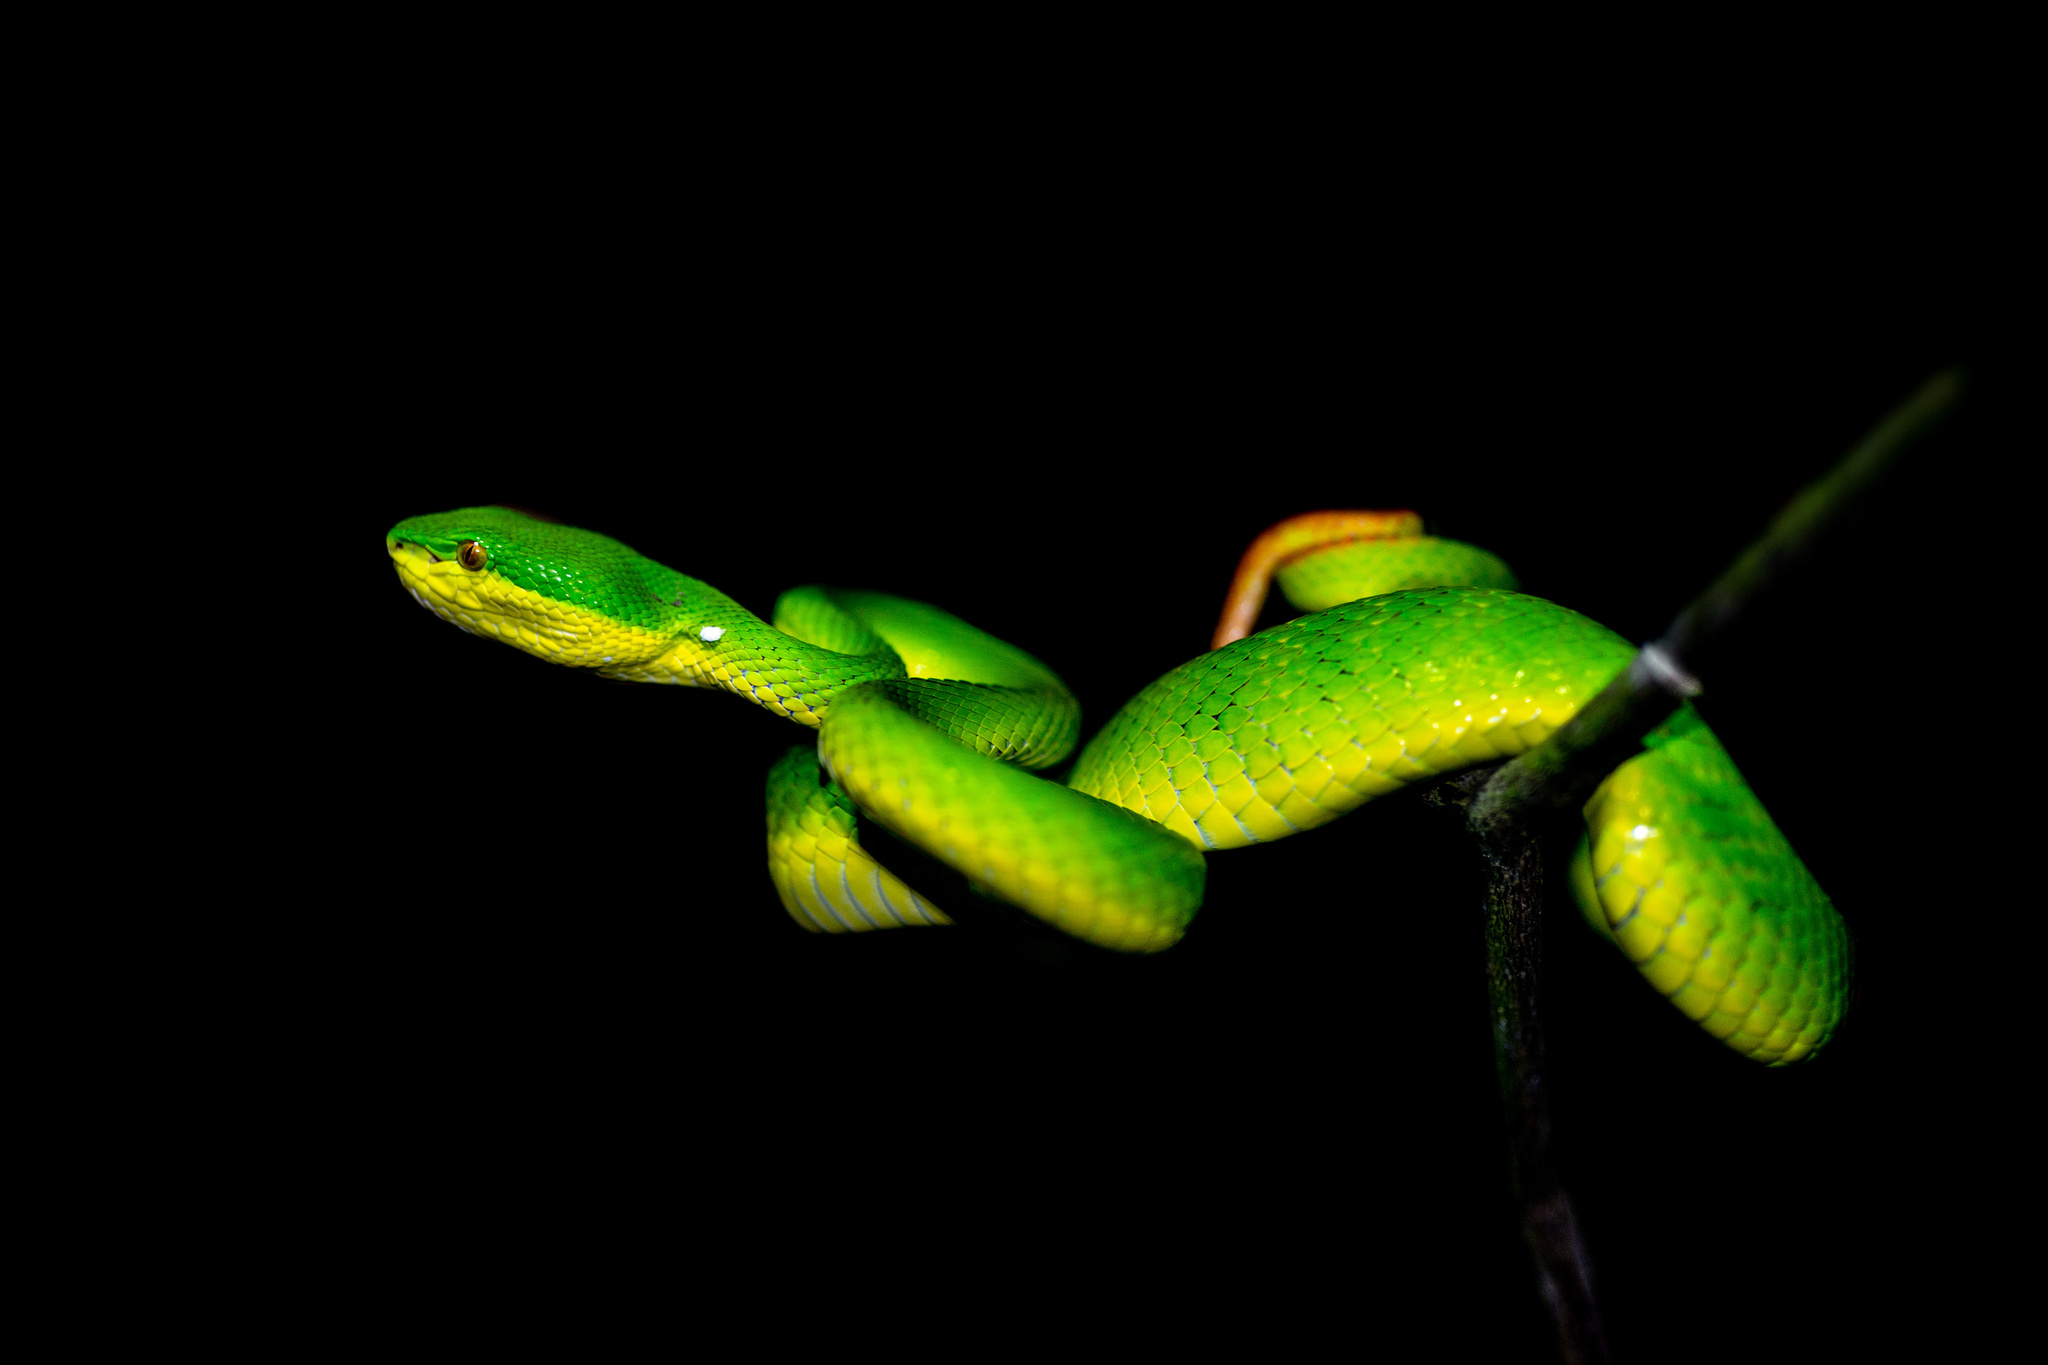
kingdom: Animalia
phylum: Chordata
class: Squamata
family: Viperidae
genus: Trimeresurus
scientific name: Trimeresurus albolabris
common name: White-lipped pitviper
